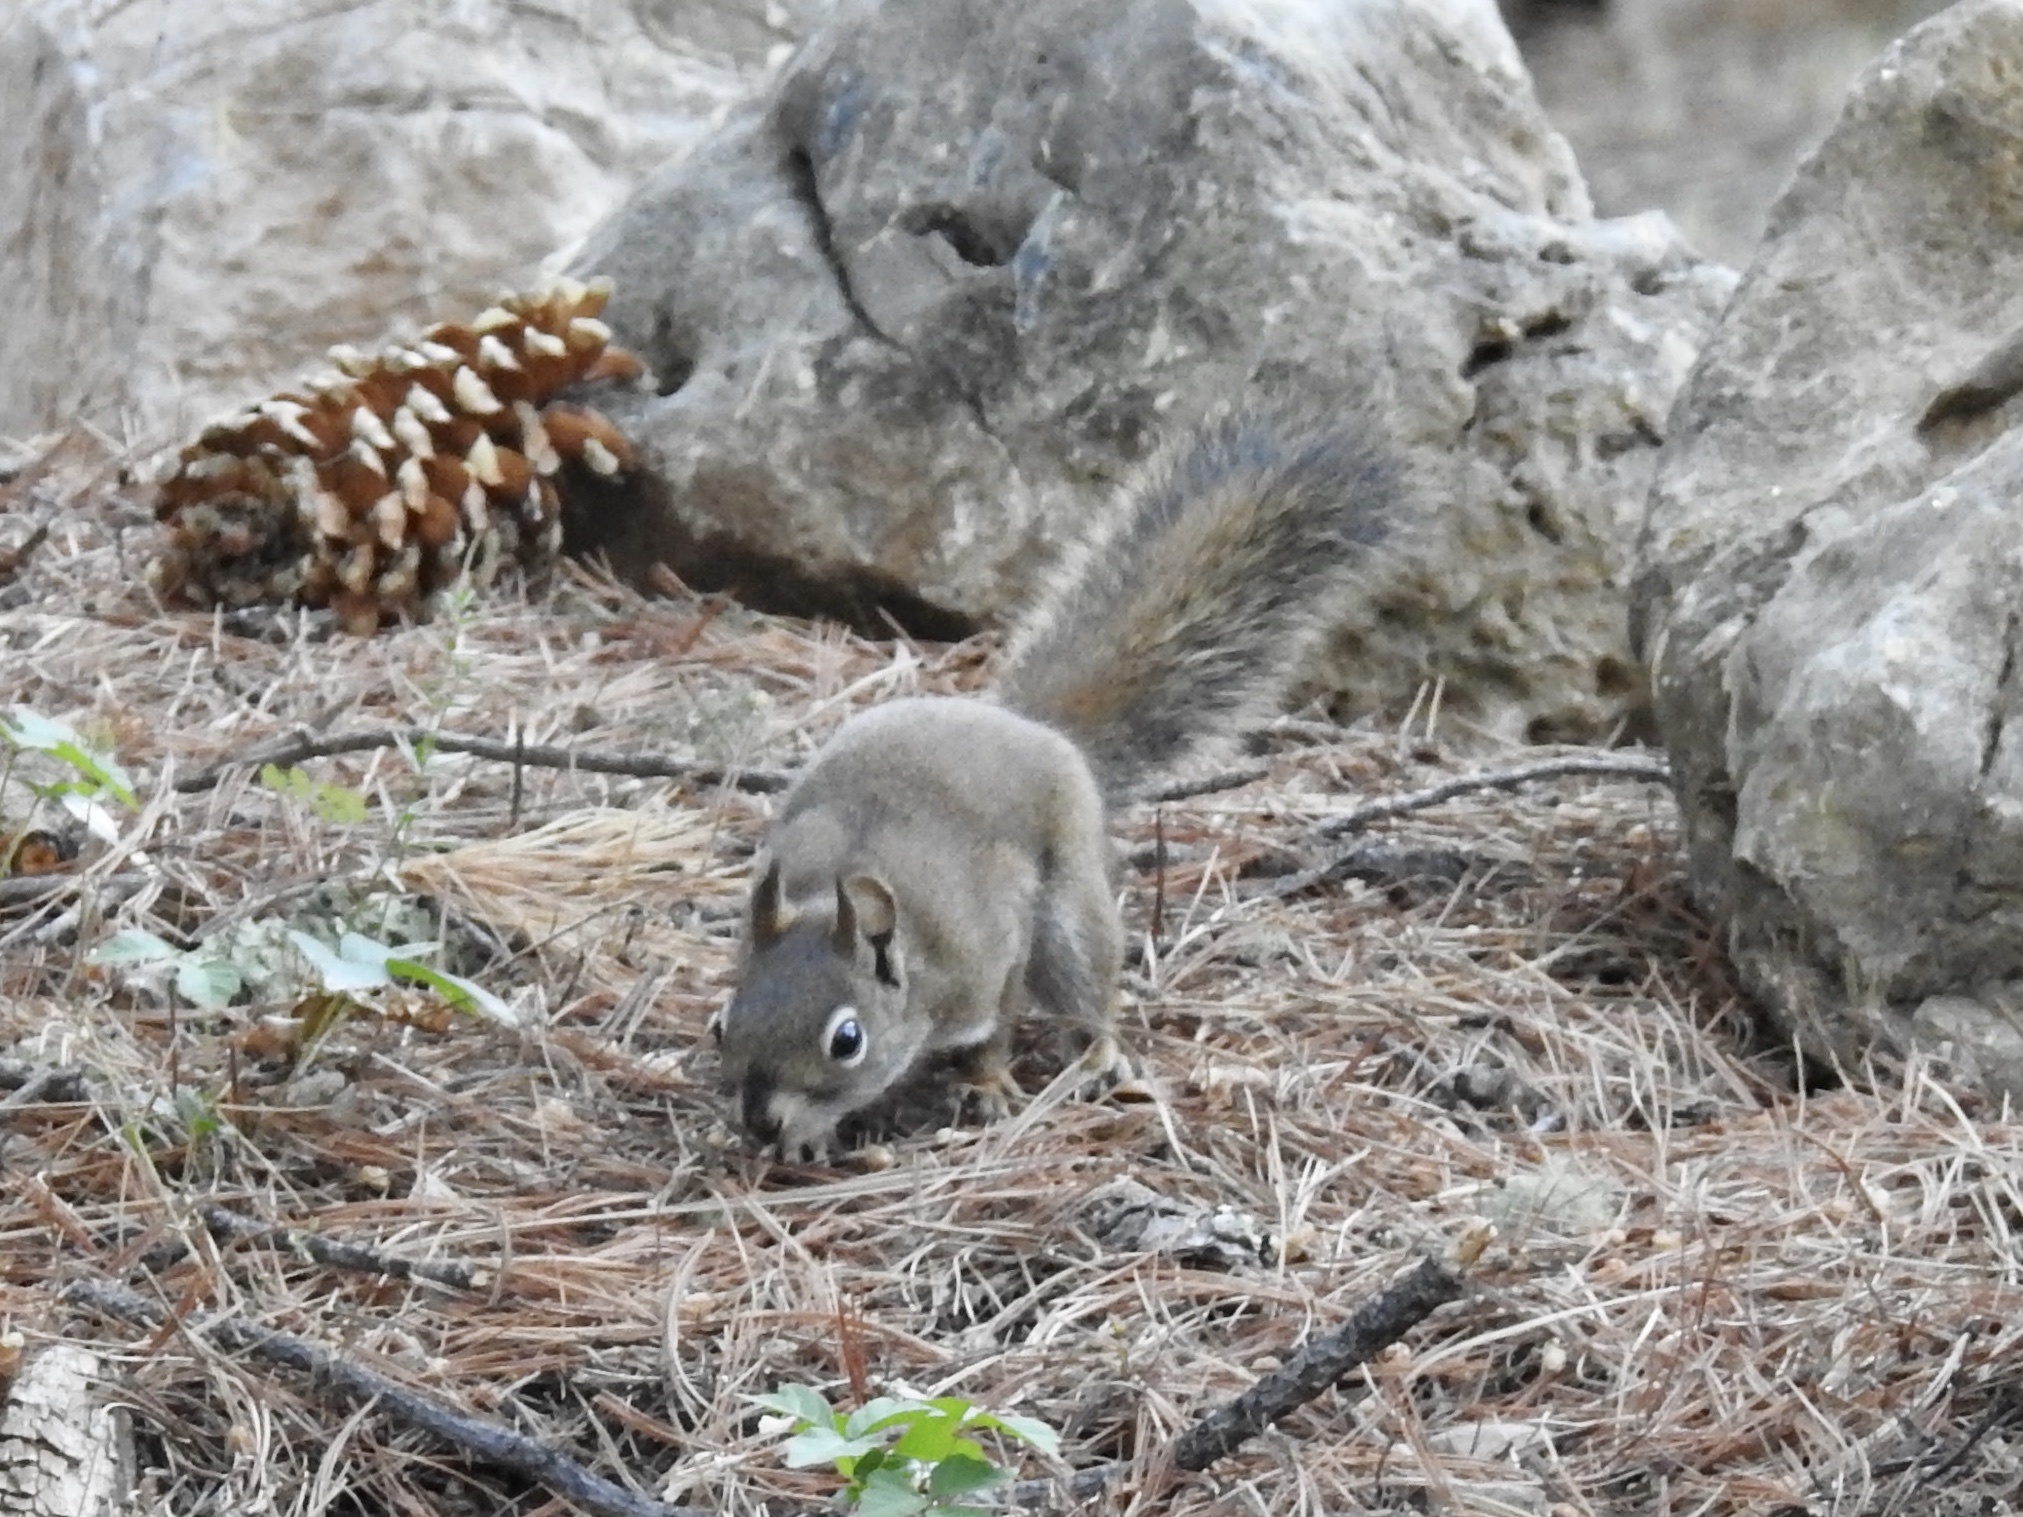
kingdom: Animalia
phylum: Chordata
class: Mammalia
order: Rodentia
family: Sciuridae
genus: Tamiasciurus
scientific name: Tamiasciurus hudsonicus
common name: Red squirrel
